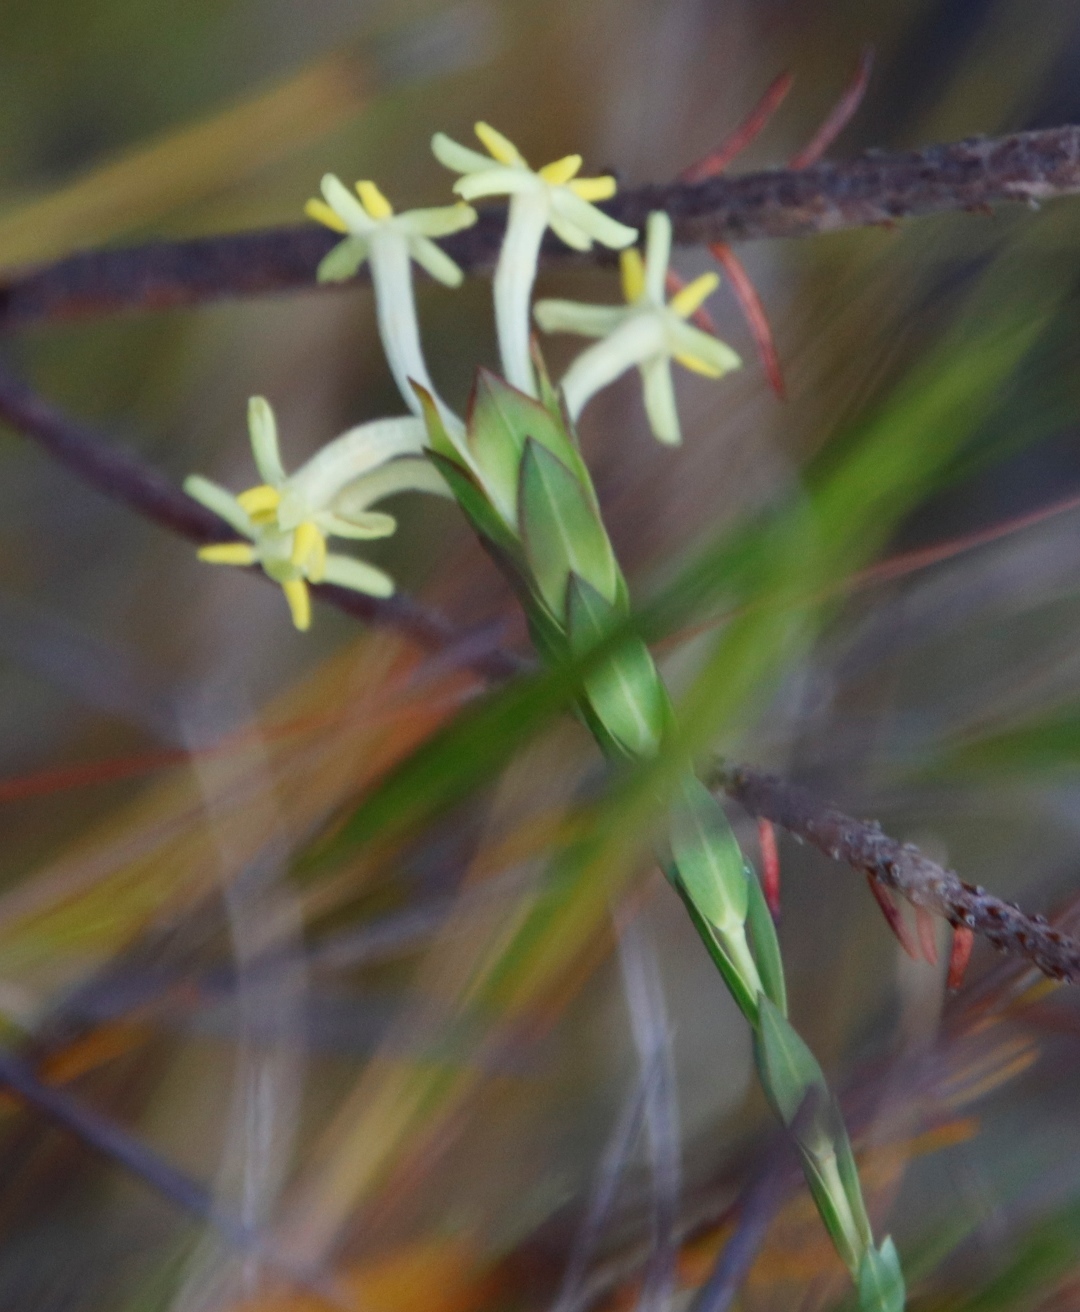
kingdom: Plantae
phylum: Tracheophyta
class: Magnoliopsida
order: Malvales
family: Thymelaeaceae
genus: Gnidia
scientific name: Gnidia oppositifolia
